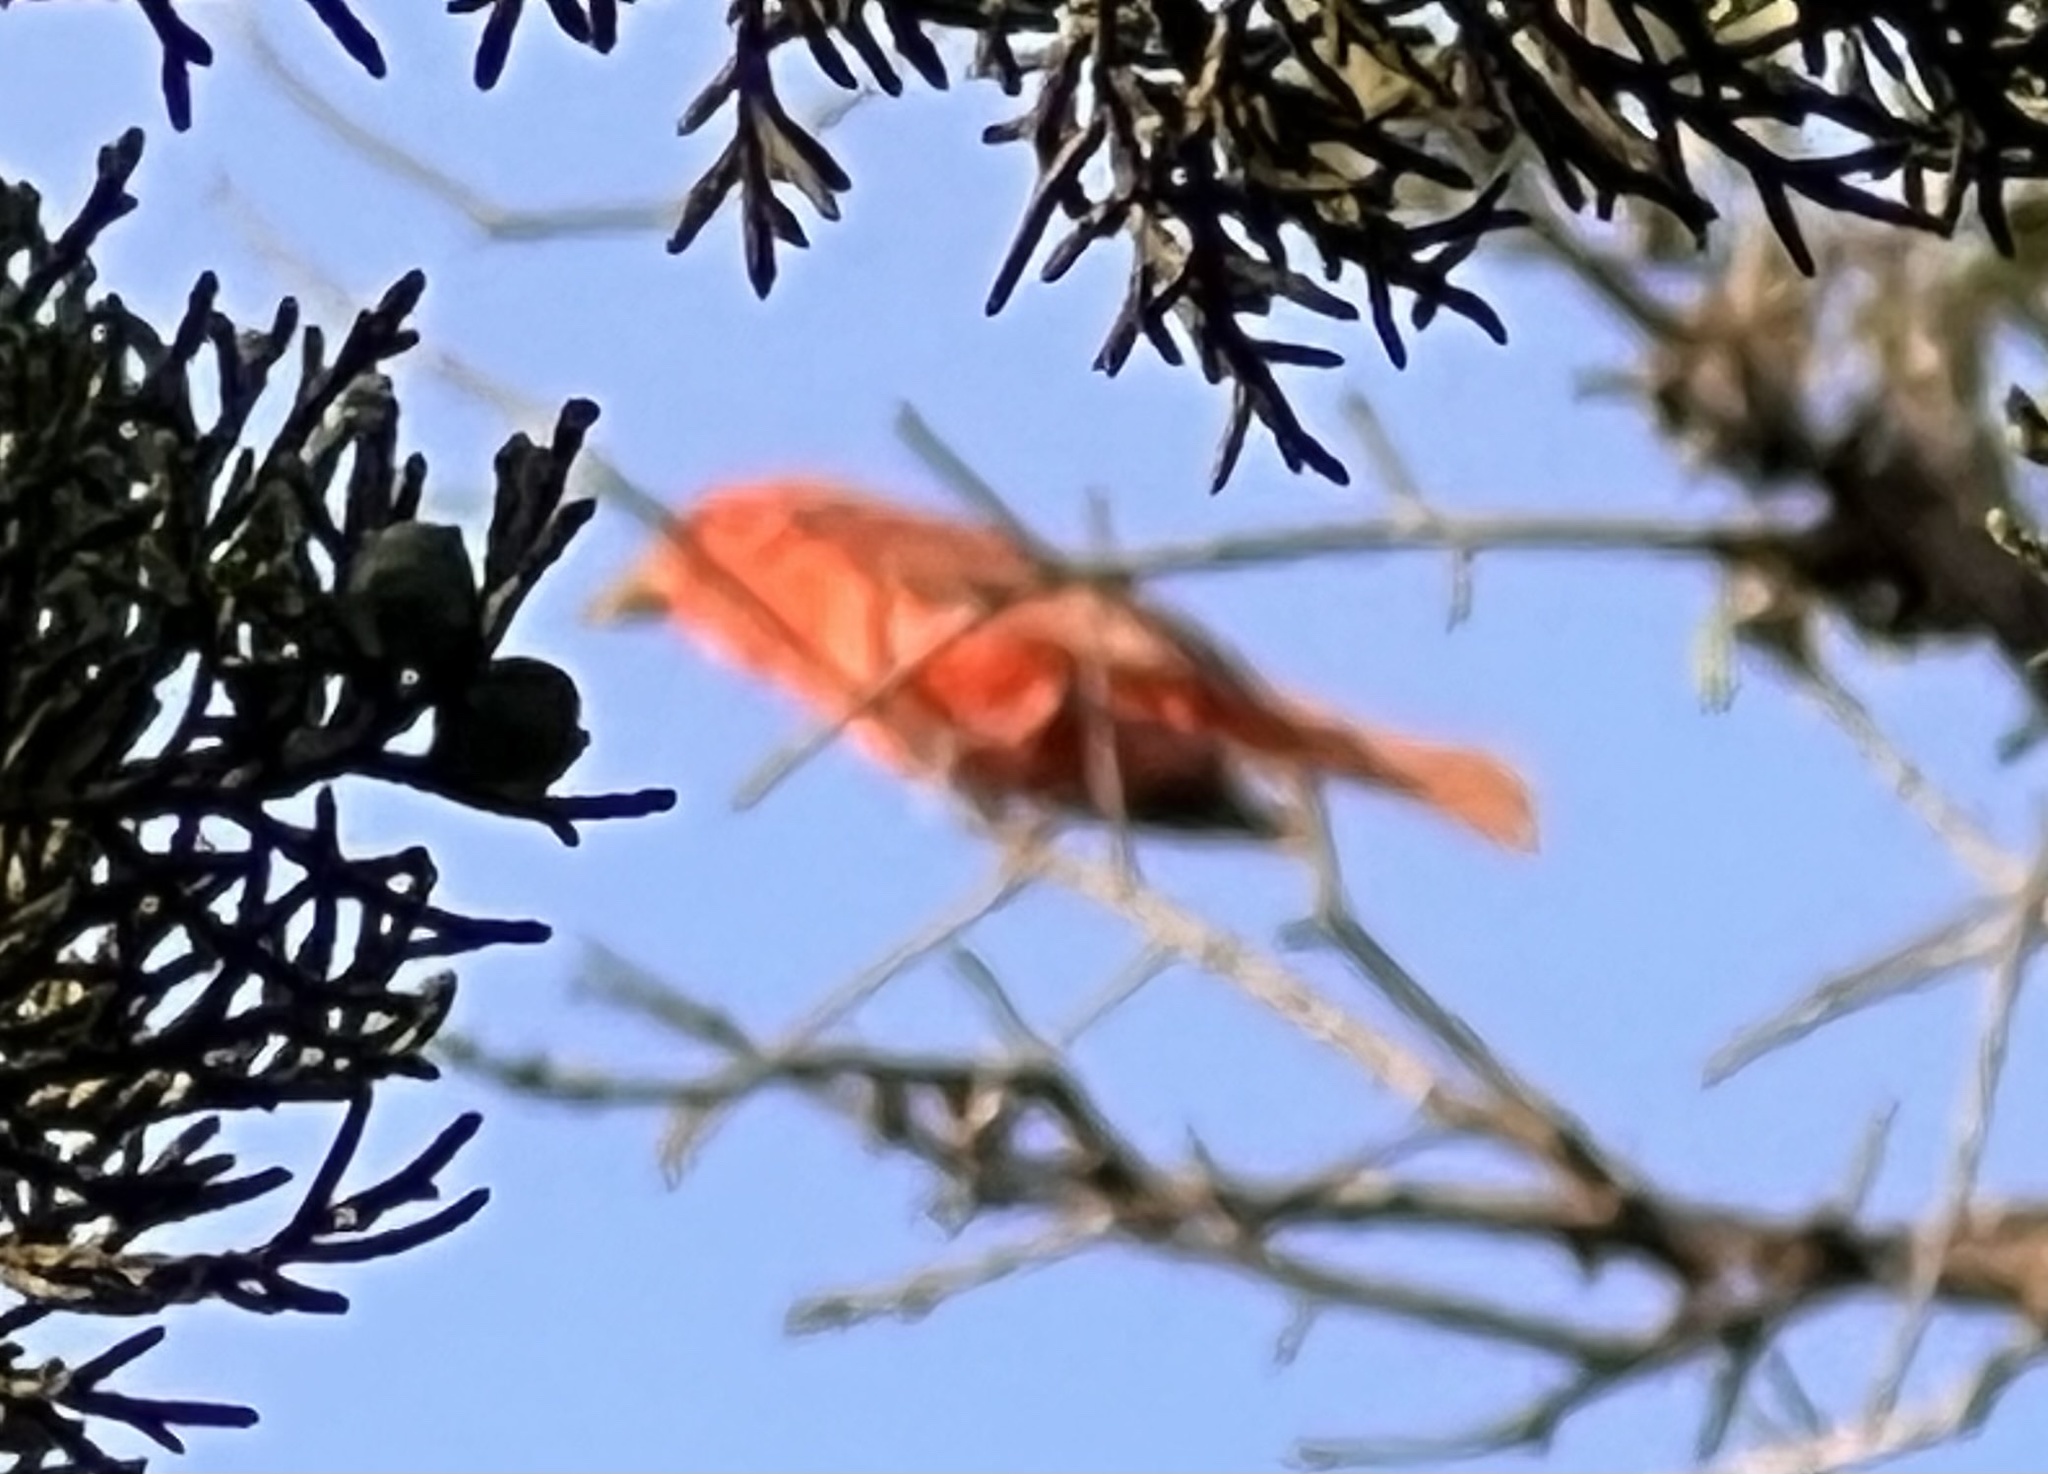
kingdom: Animalia
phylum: Chordata
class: Aves
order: Passeriformes
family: Cardinalidae
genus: Piranga
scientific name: Piranga rubra
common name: Summer tanager
